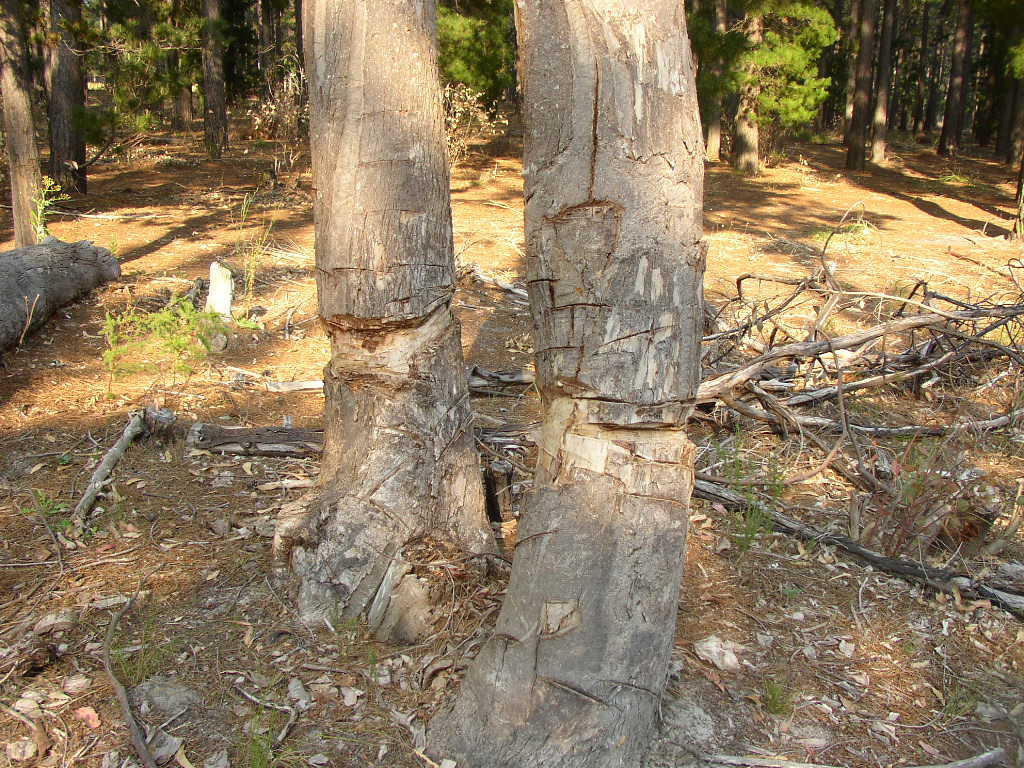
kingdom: Plantae
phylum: Tracheophyta
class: Magnoliopsida
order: Myrtales
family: Myrtaceae
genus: Eucalyptus
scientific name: Eucalyptus melliodora
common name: Yellow ironbox
